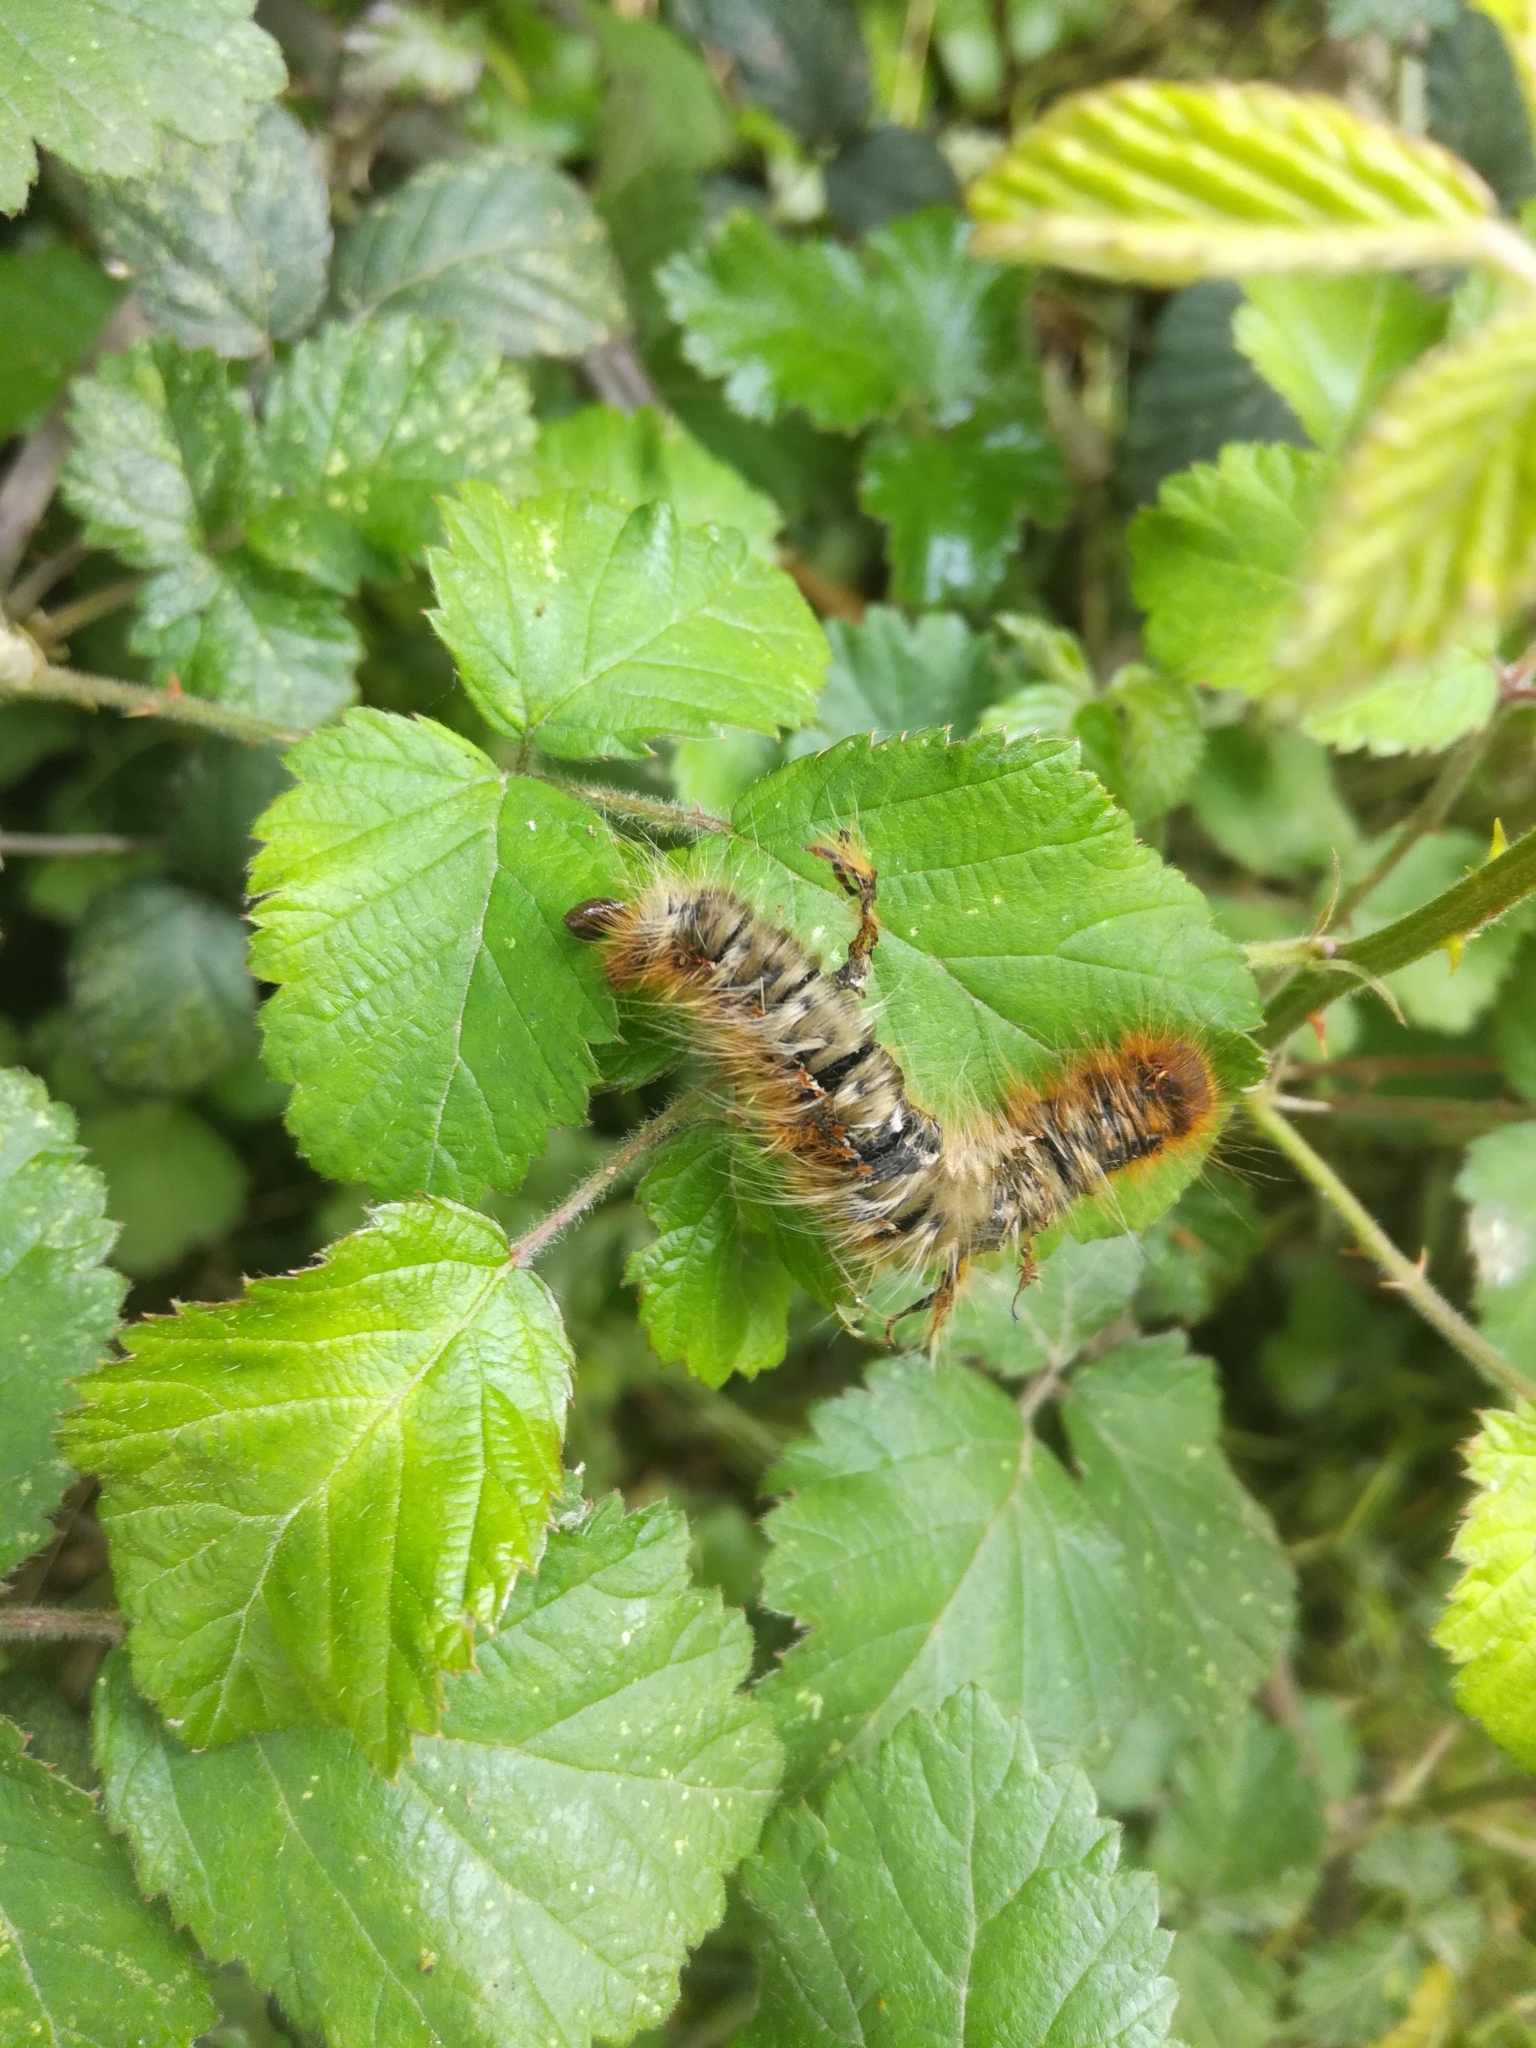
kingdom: Animalia
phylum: Arthropoda
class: Insecta
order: Lepidoptera
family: Lasiocampidae
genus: Lasiocampa
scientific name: Lasiocampa quercus
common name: Oak eggar
